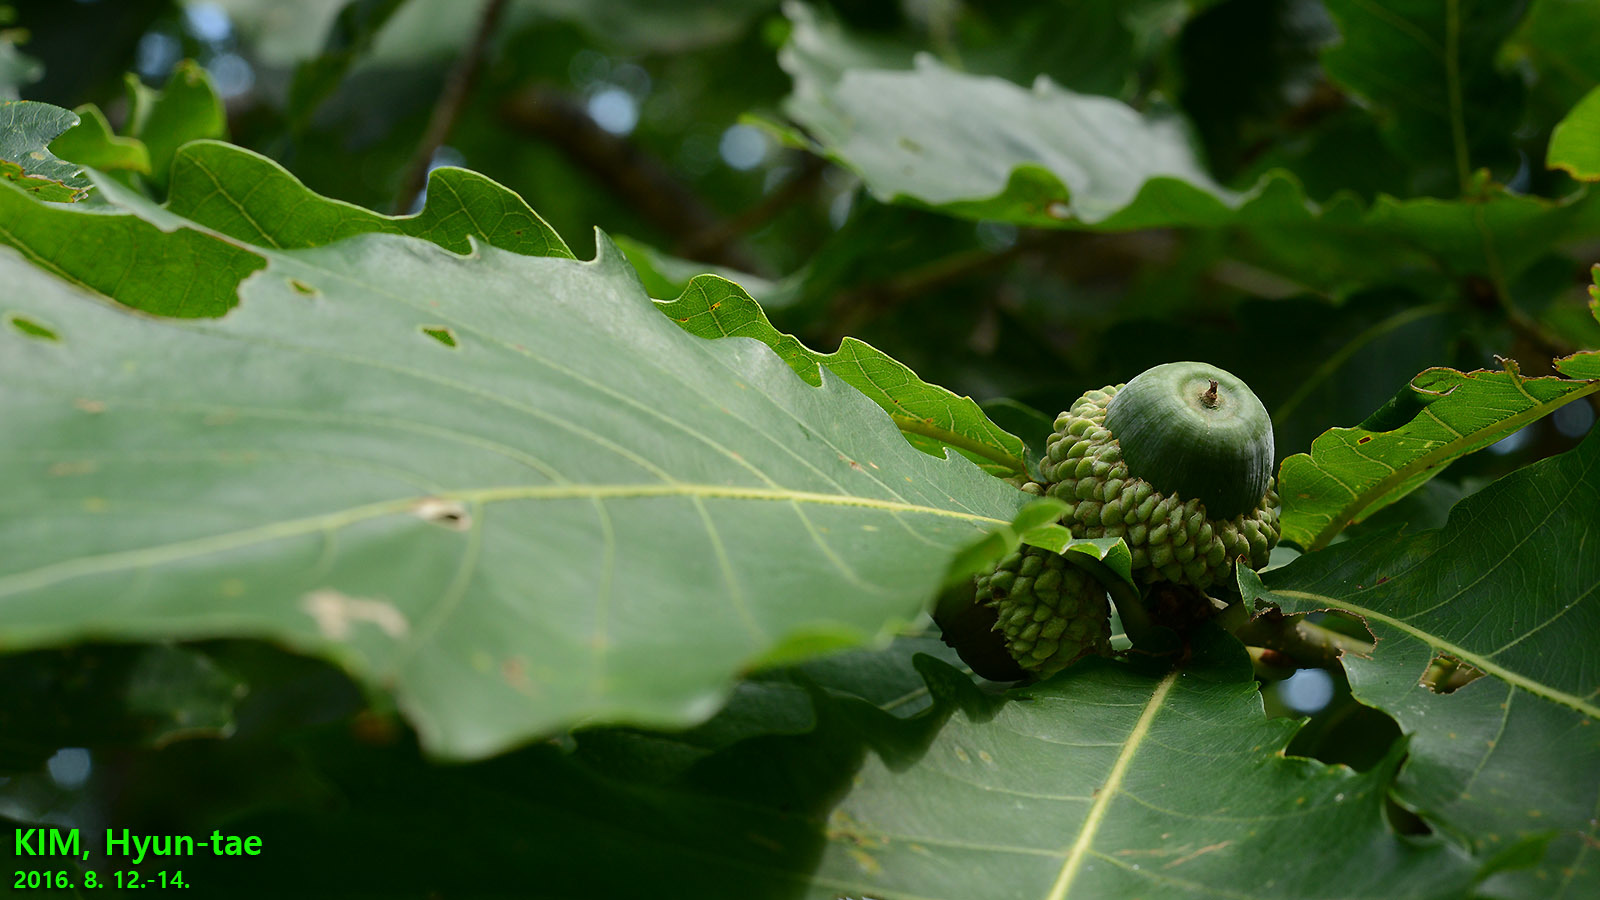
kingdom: Plantae
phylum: Tracheophyta
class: Magnoliopsida
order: Fagales
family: Fagaceae
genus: Quercus
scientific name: Quercus mongolica
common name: Mongolian oak
